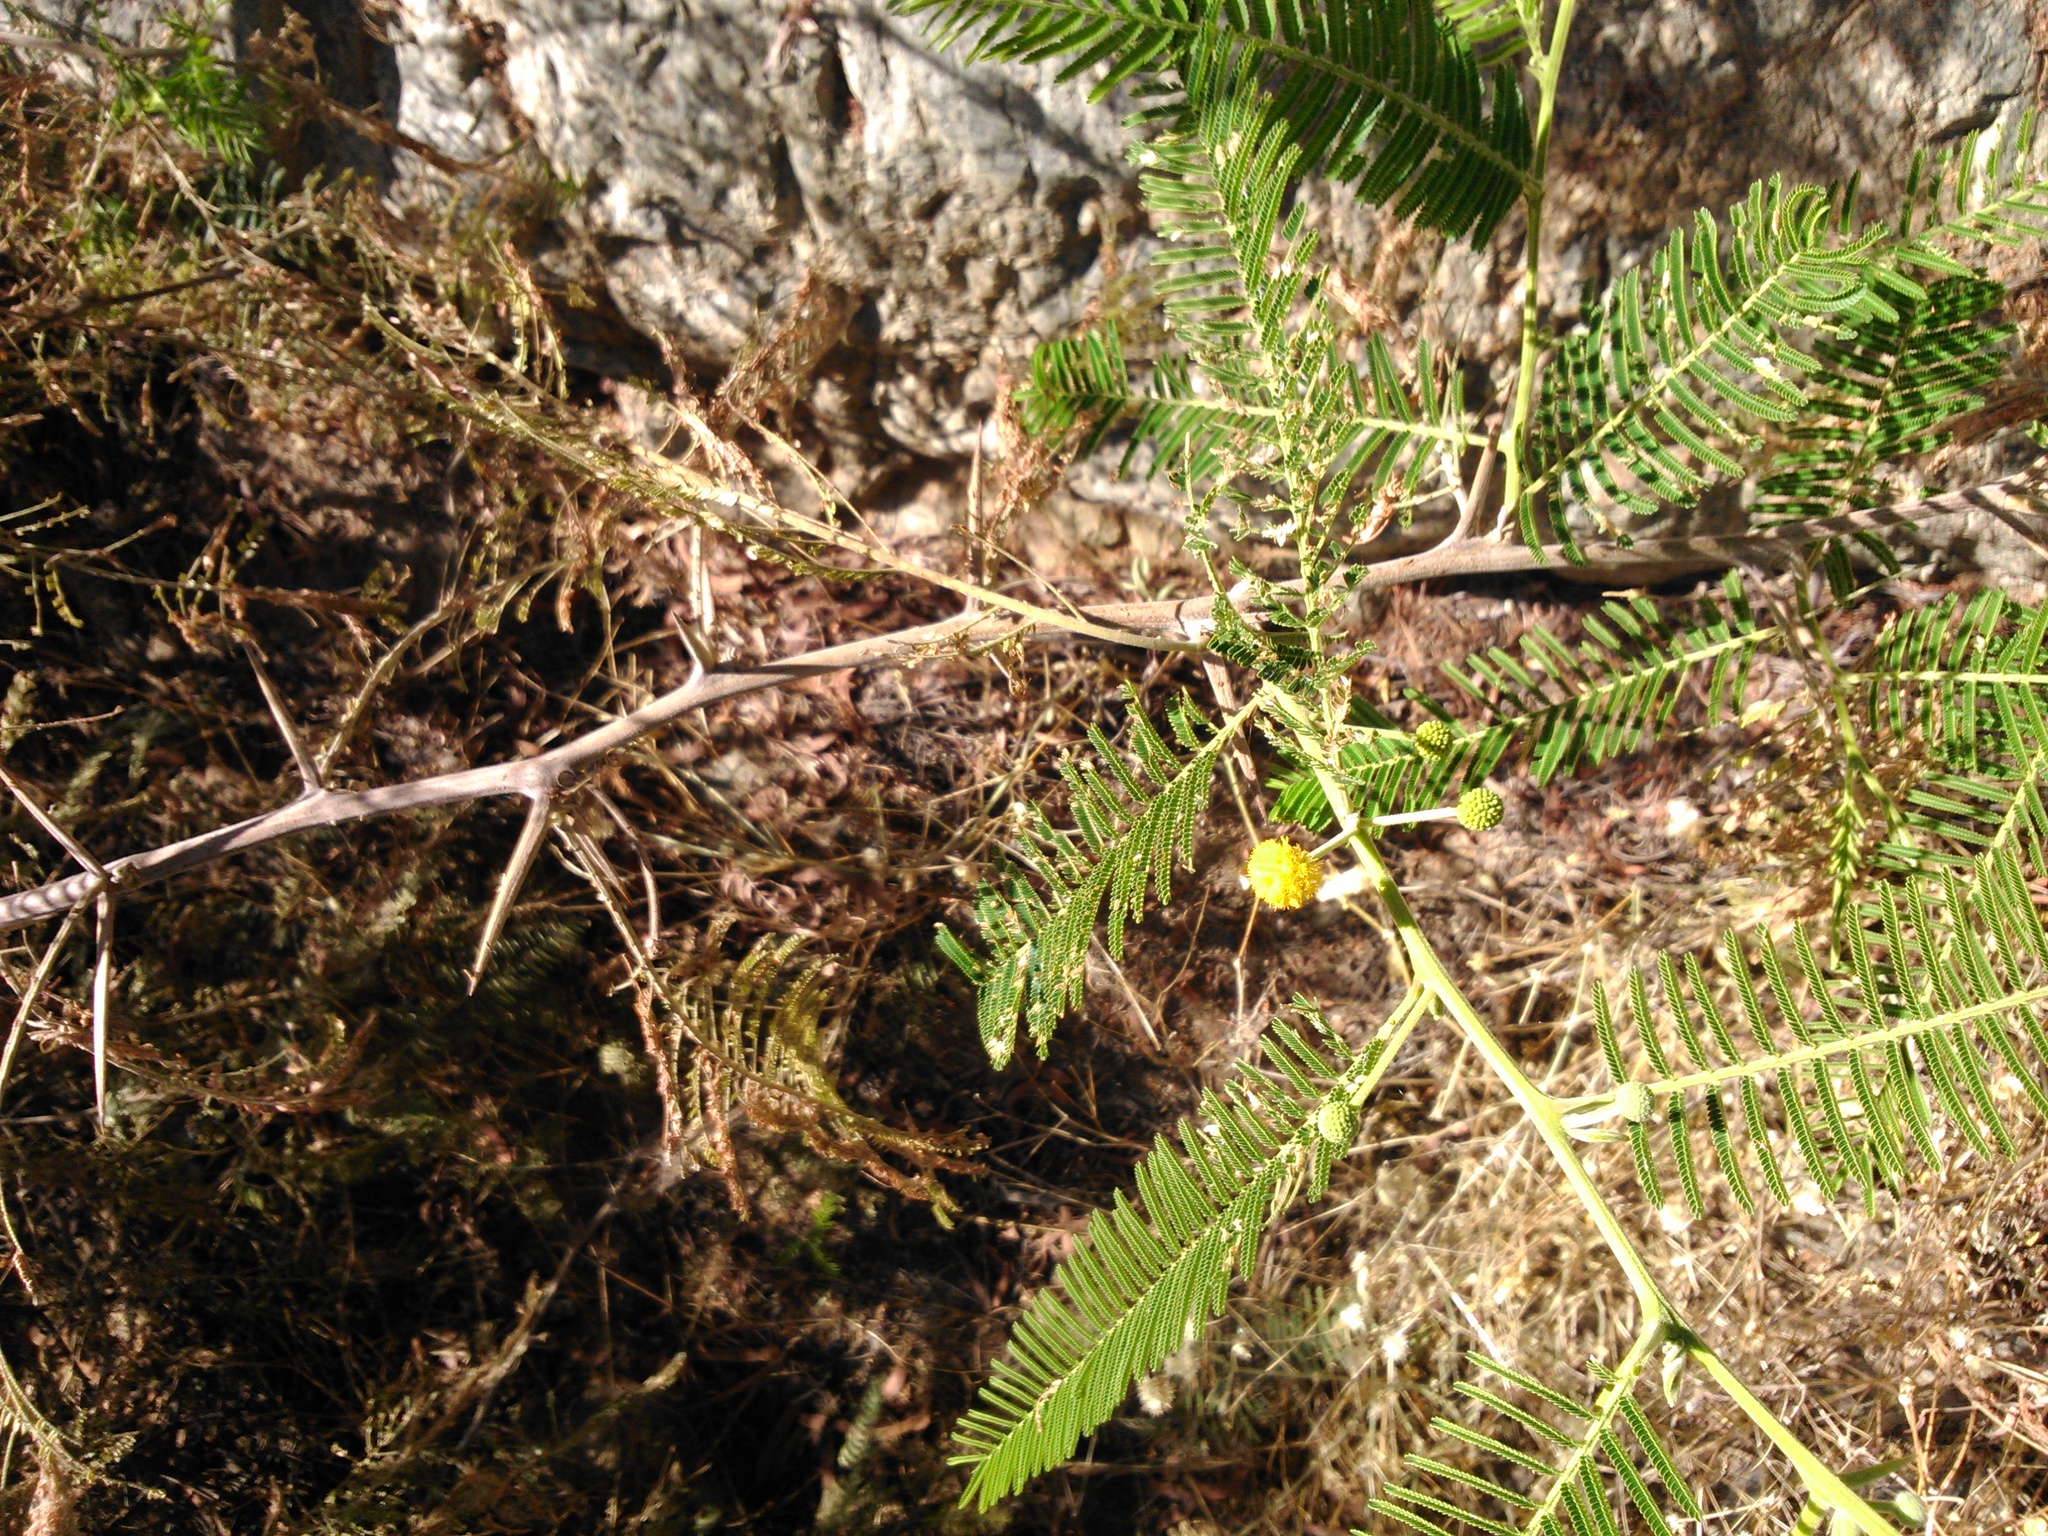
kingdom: Plantae
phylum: Tracheophyta
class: Magnoliopsida
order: Fabales
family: Fabaceae
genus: Vachellia
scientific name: Vachellia macracantha
